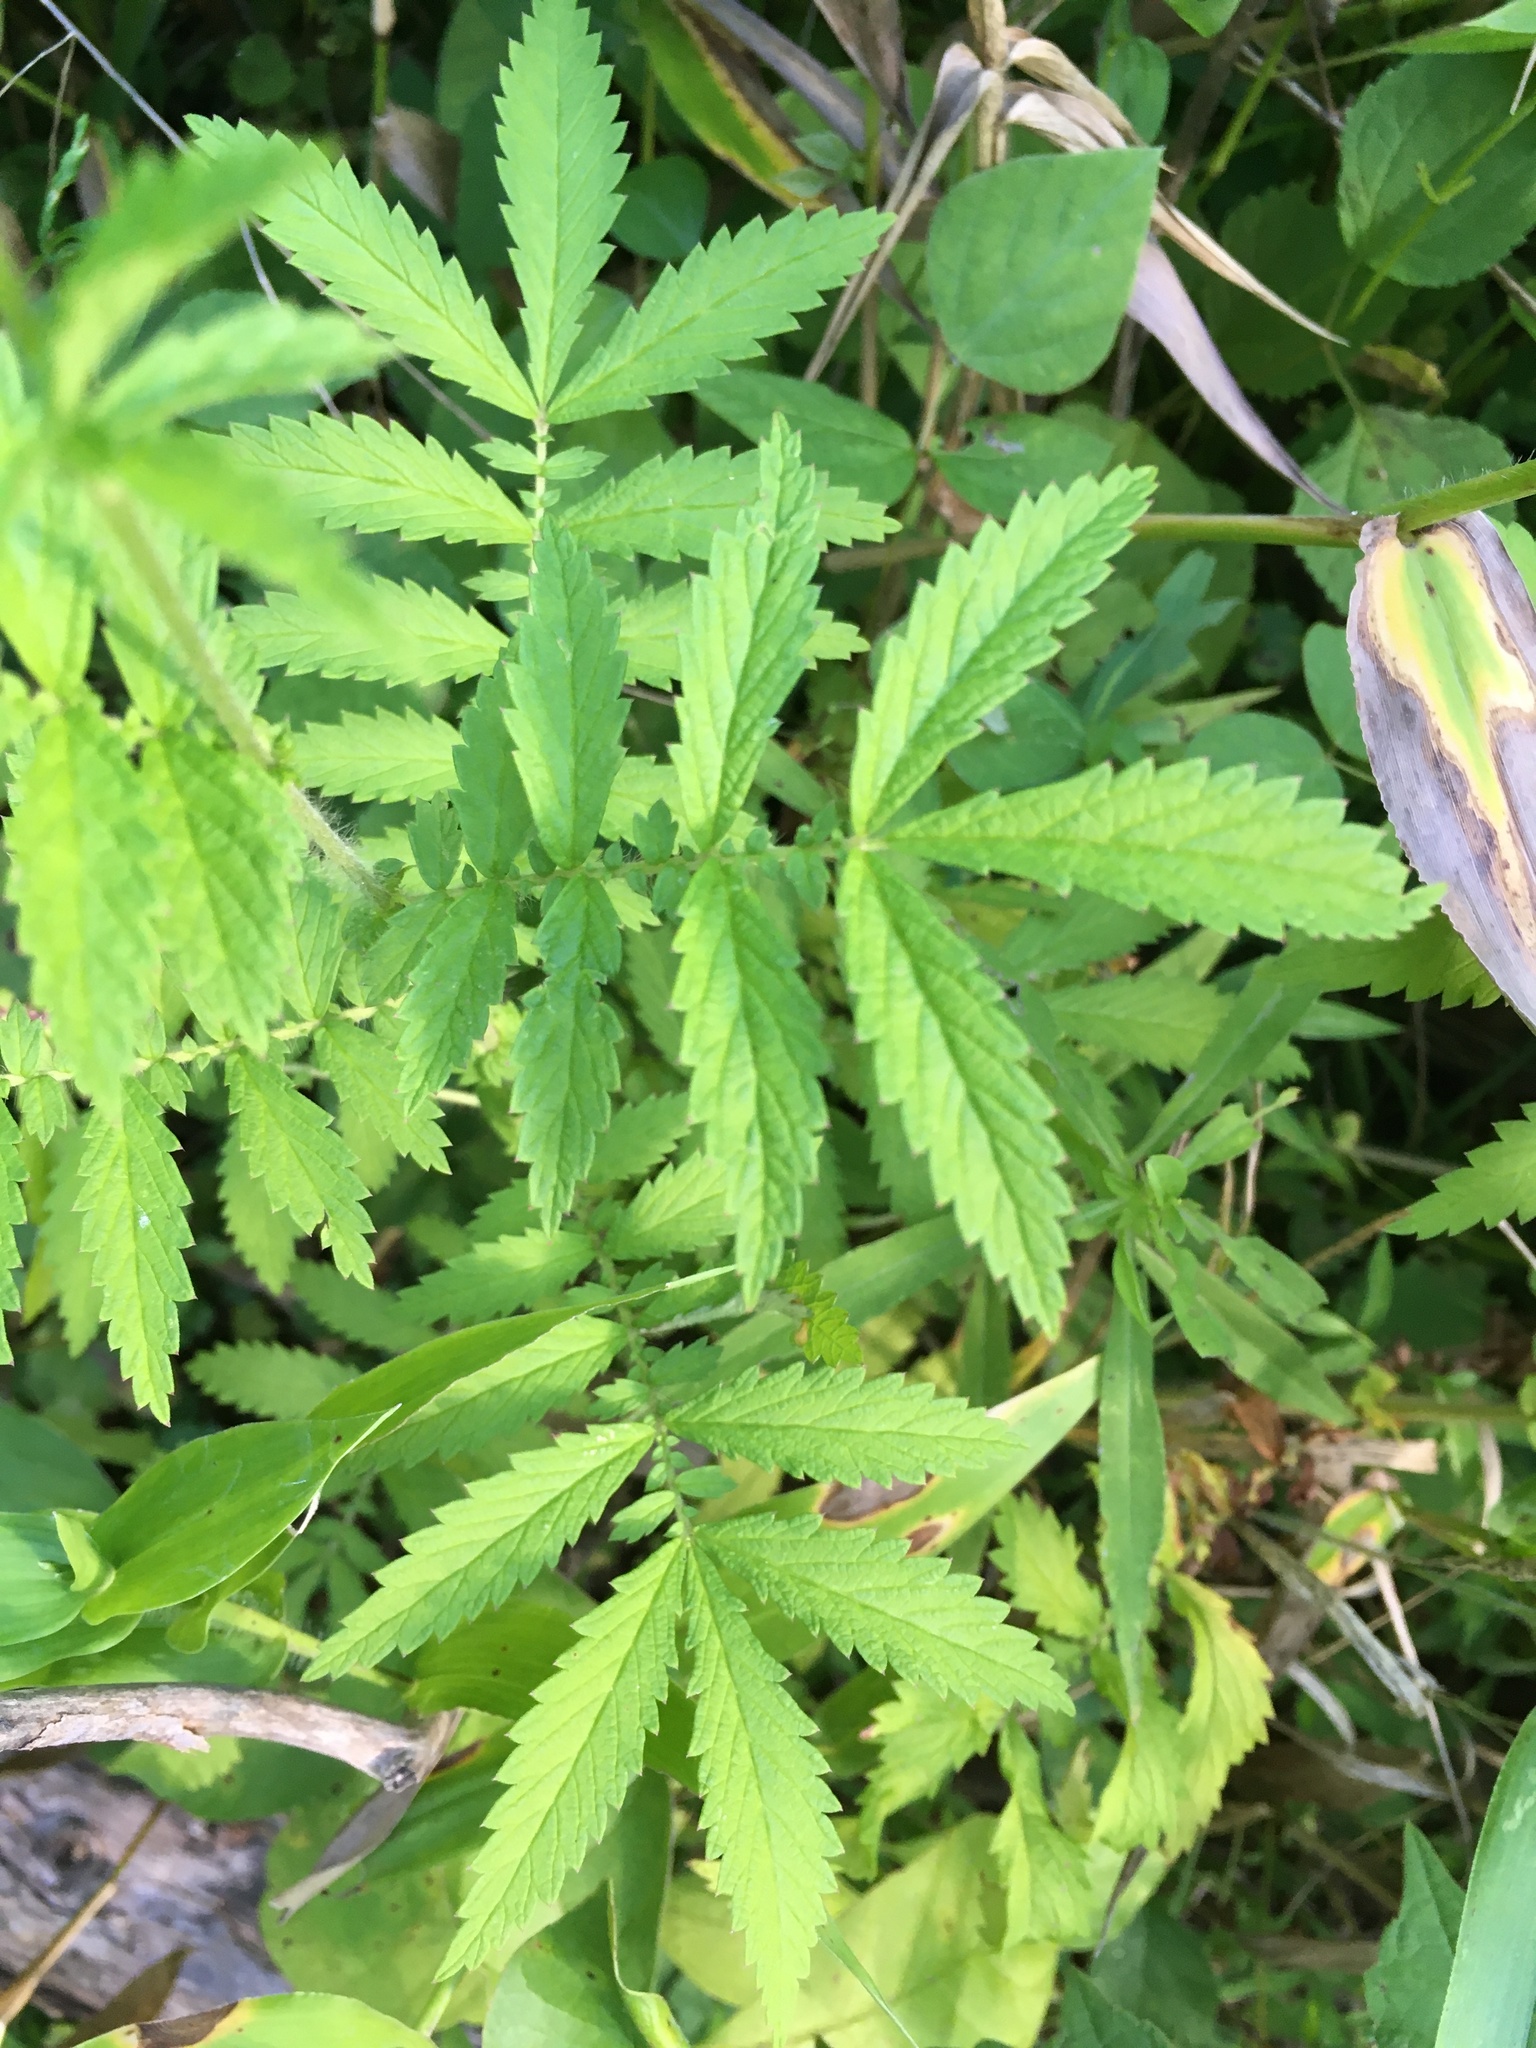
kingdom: Plantae
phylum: Tracheophyta
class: Magnoliopsida
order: Rosales
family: Rosaceae
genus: Agrimonia
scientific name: Agrimonia parviflora
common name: Harvest-lice
